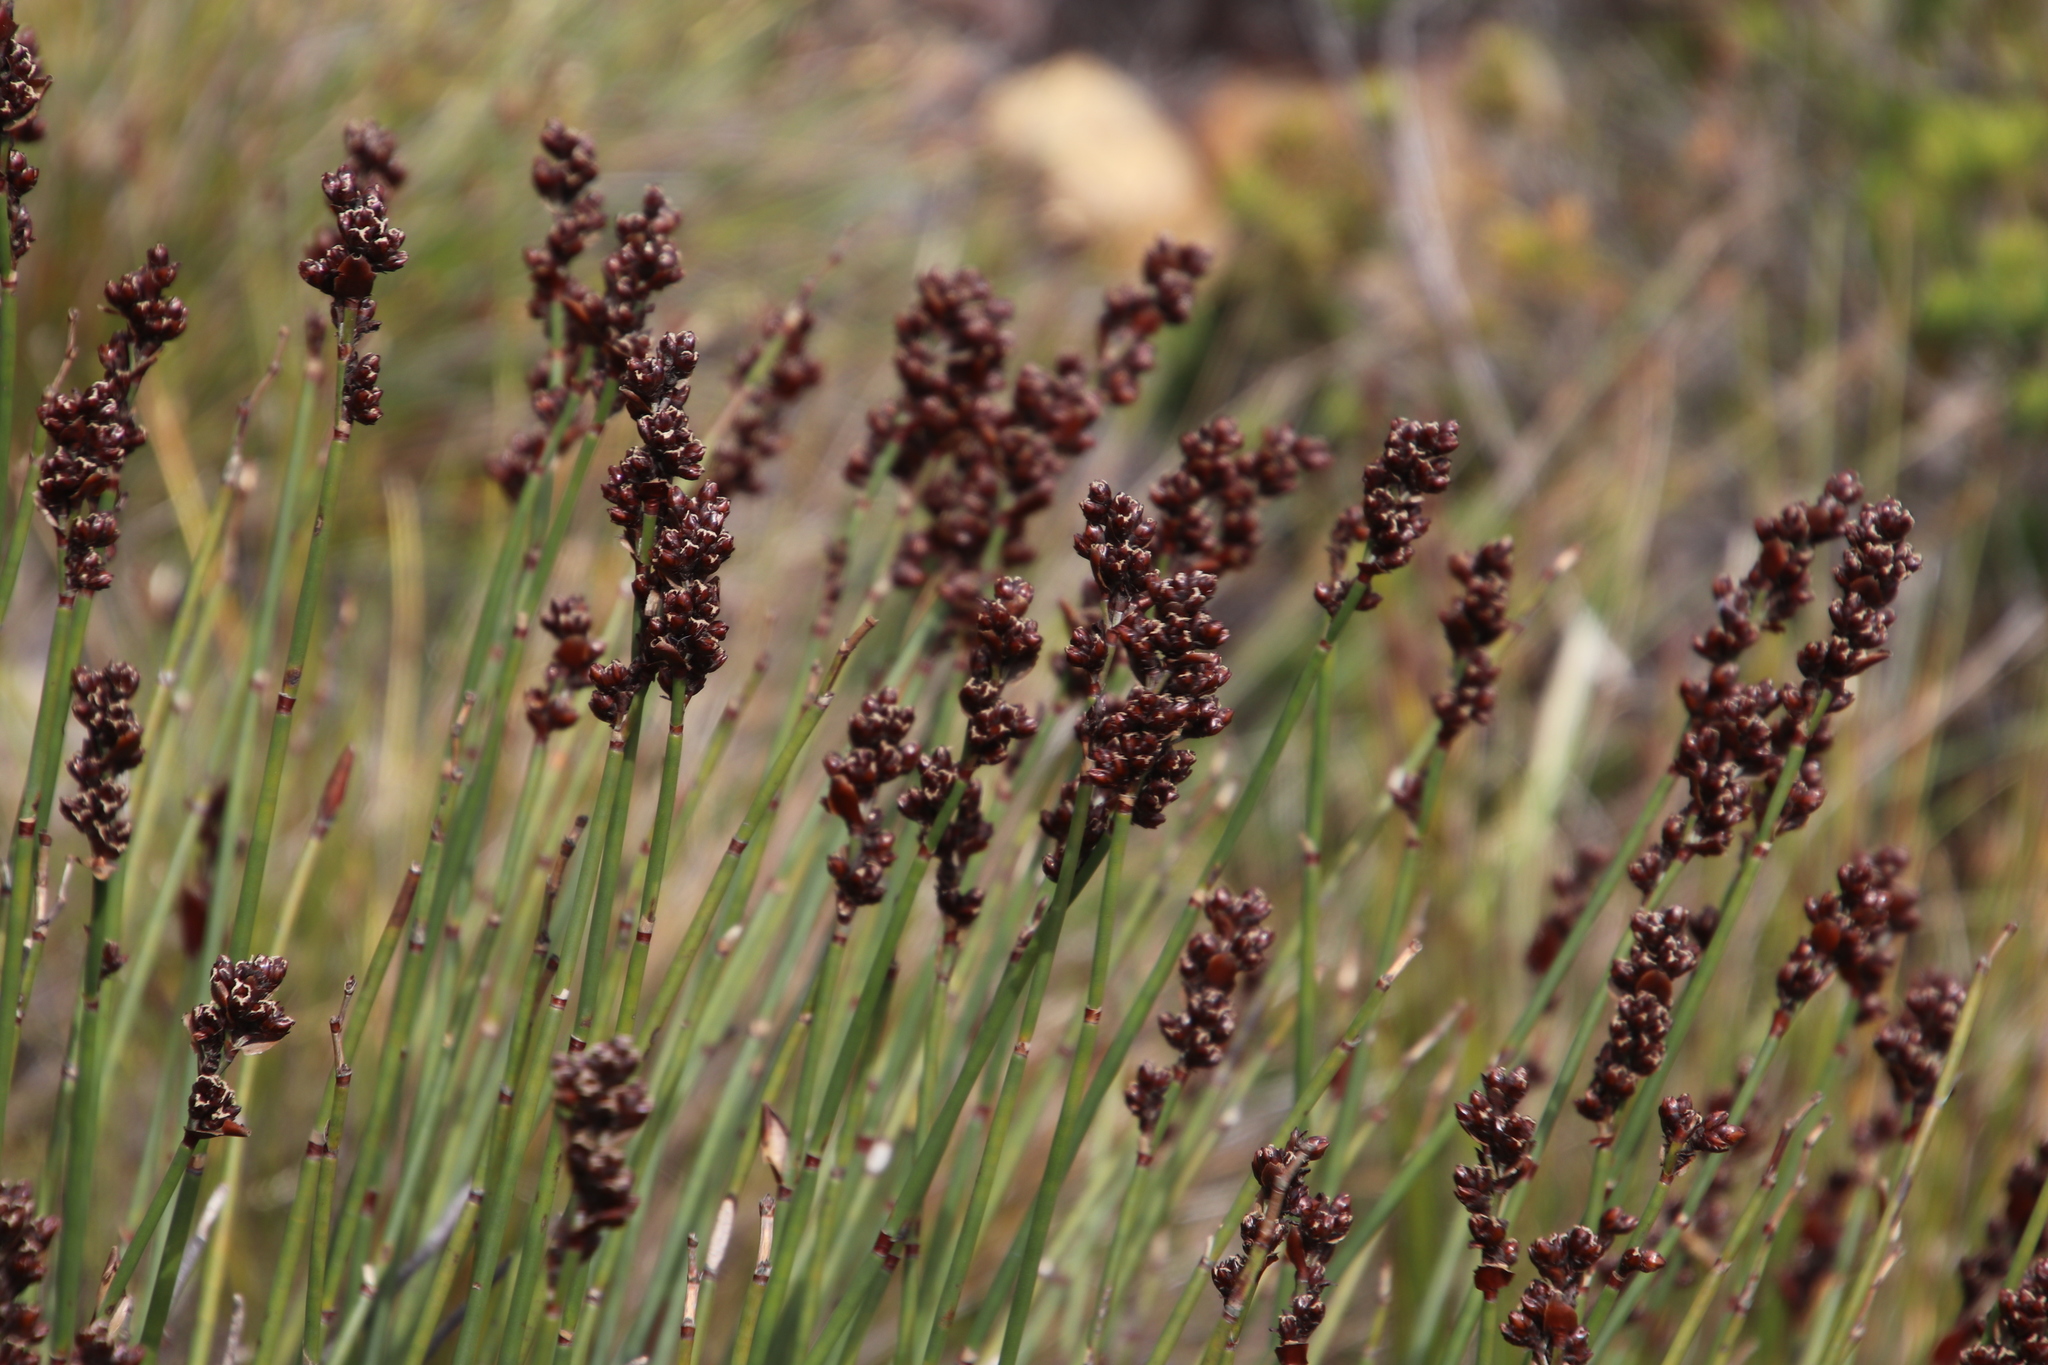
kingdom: Plantae
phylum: Tracheophyta
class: Liliopsida
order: Poales
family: Restionaceae
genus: Elegia
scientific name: Elegia marlothii
